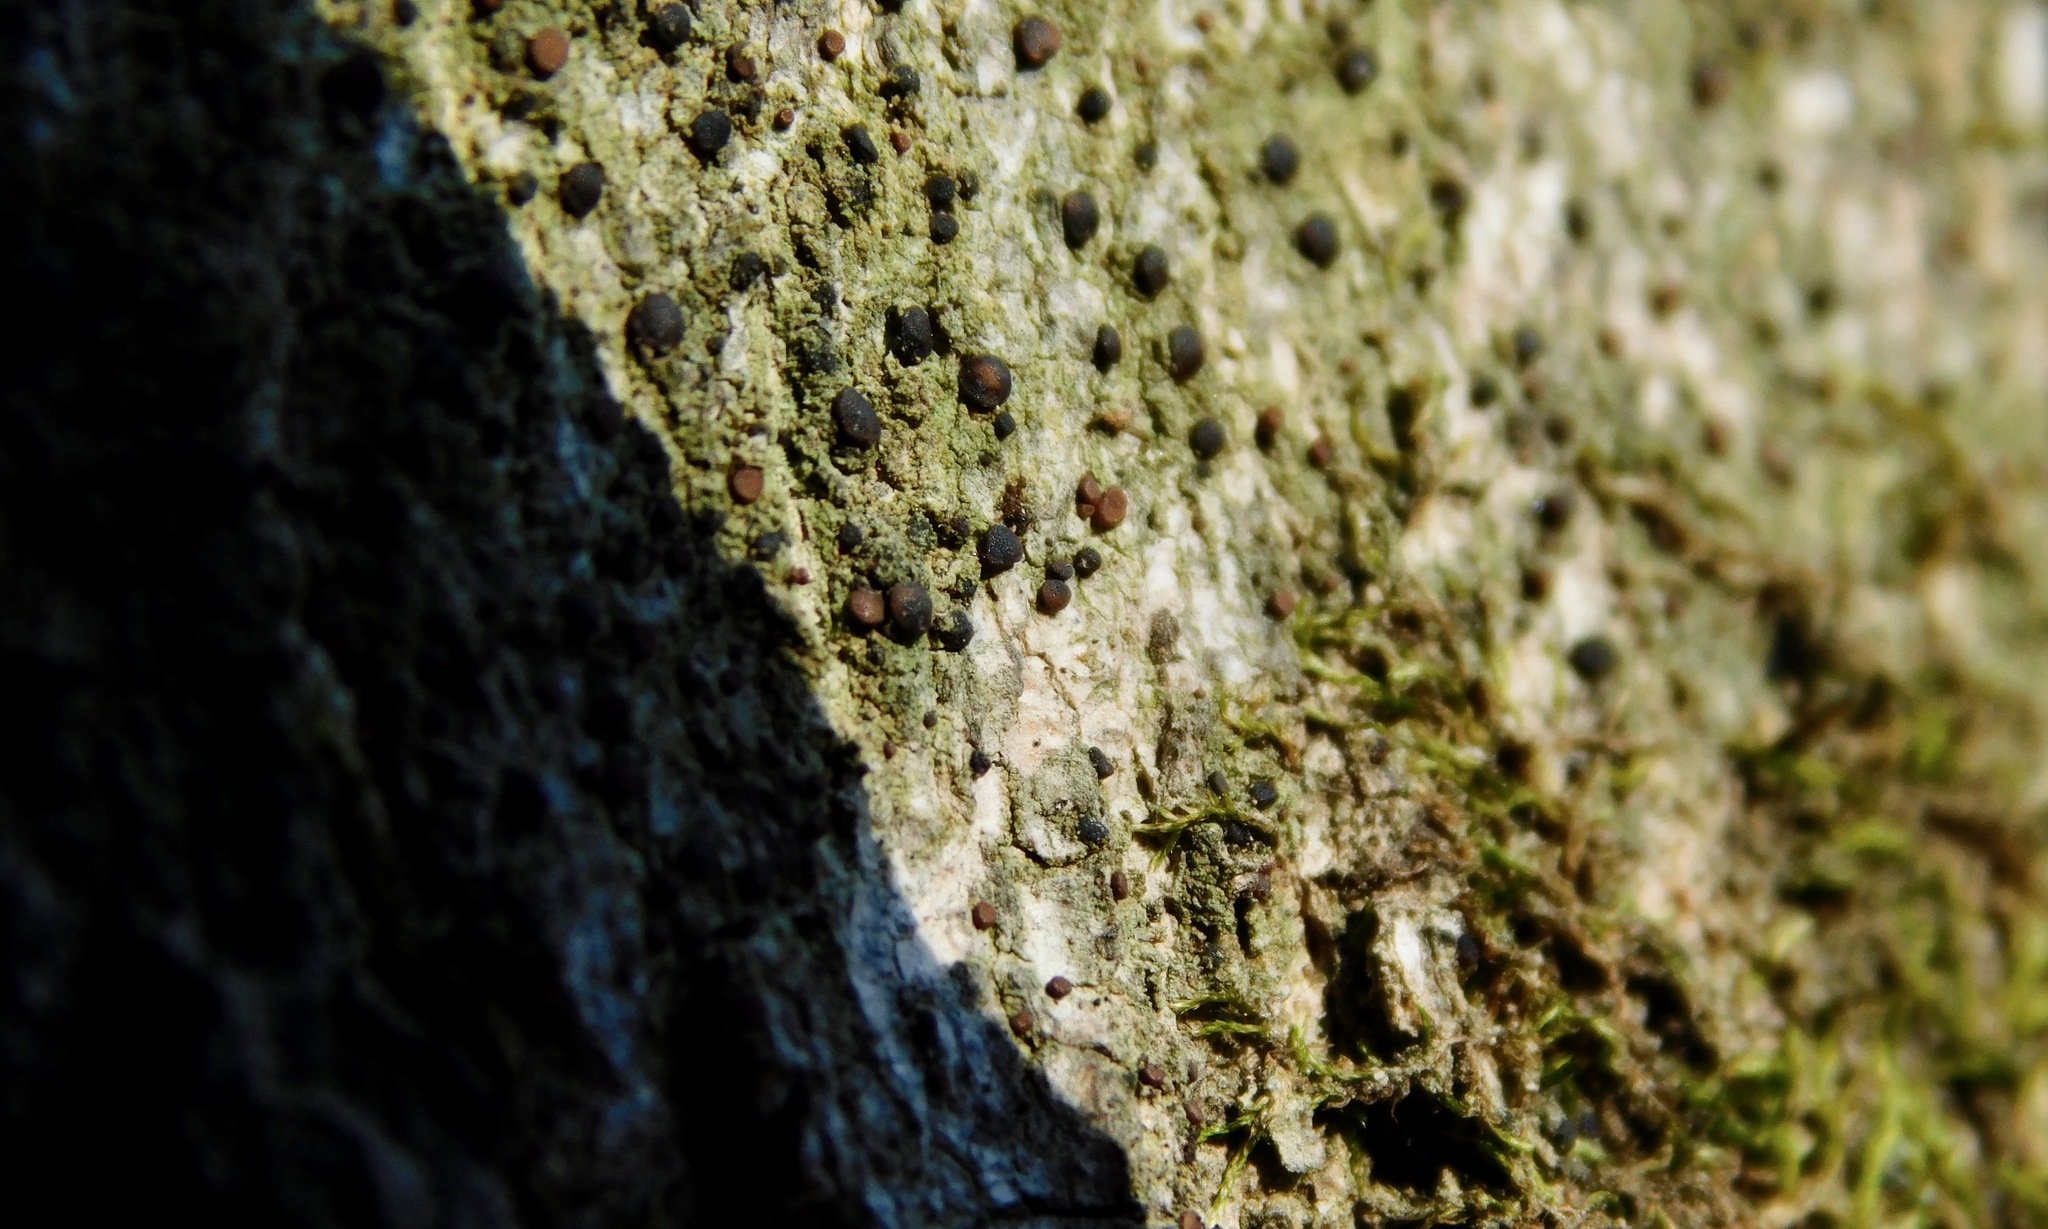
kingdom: Fungi
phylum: Ascomycota
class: Lecanoromycetes
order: Lecanorales
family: Lecanoraceae
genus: Traponora
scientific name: Traponora varians
